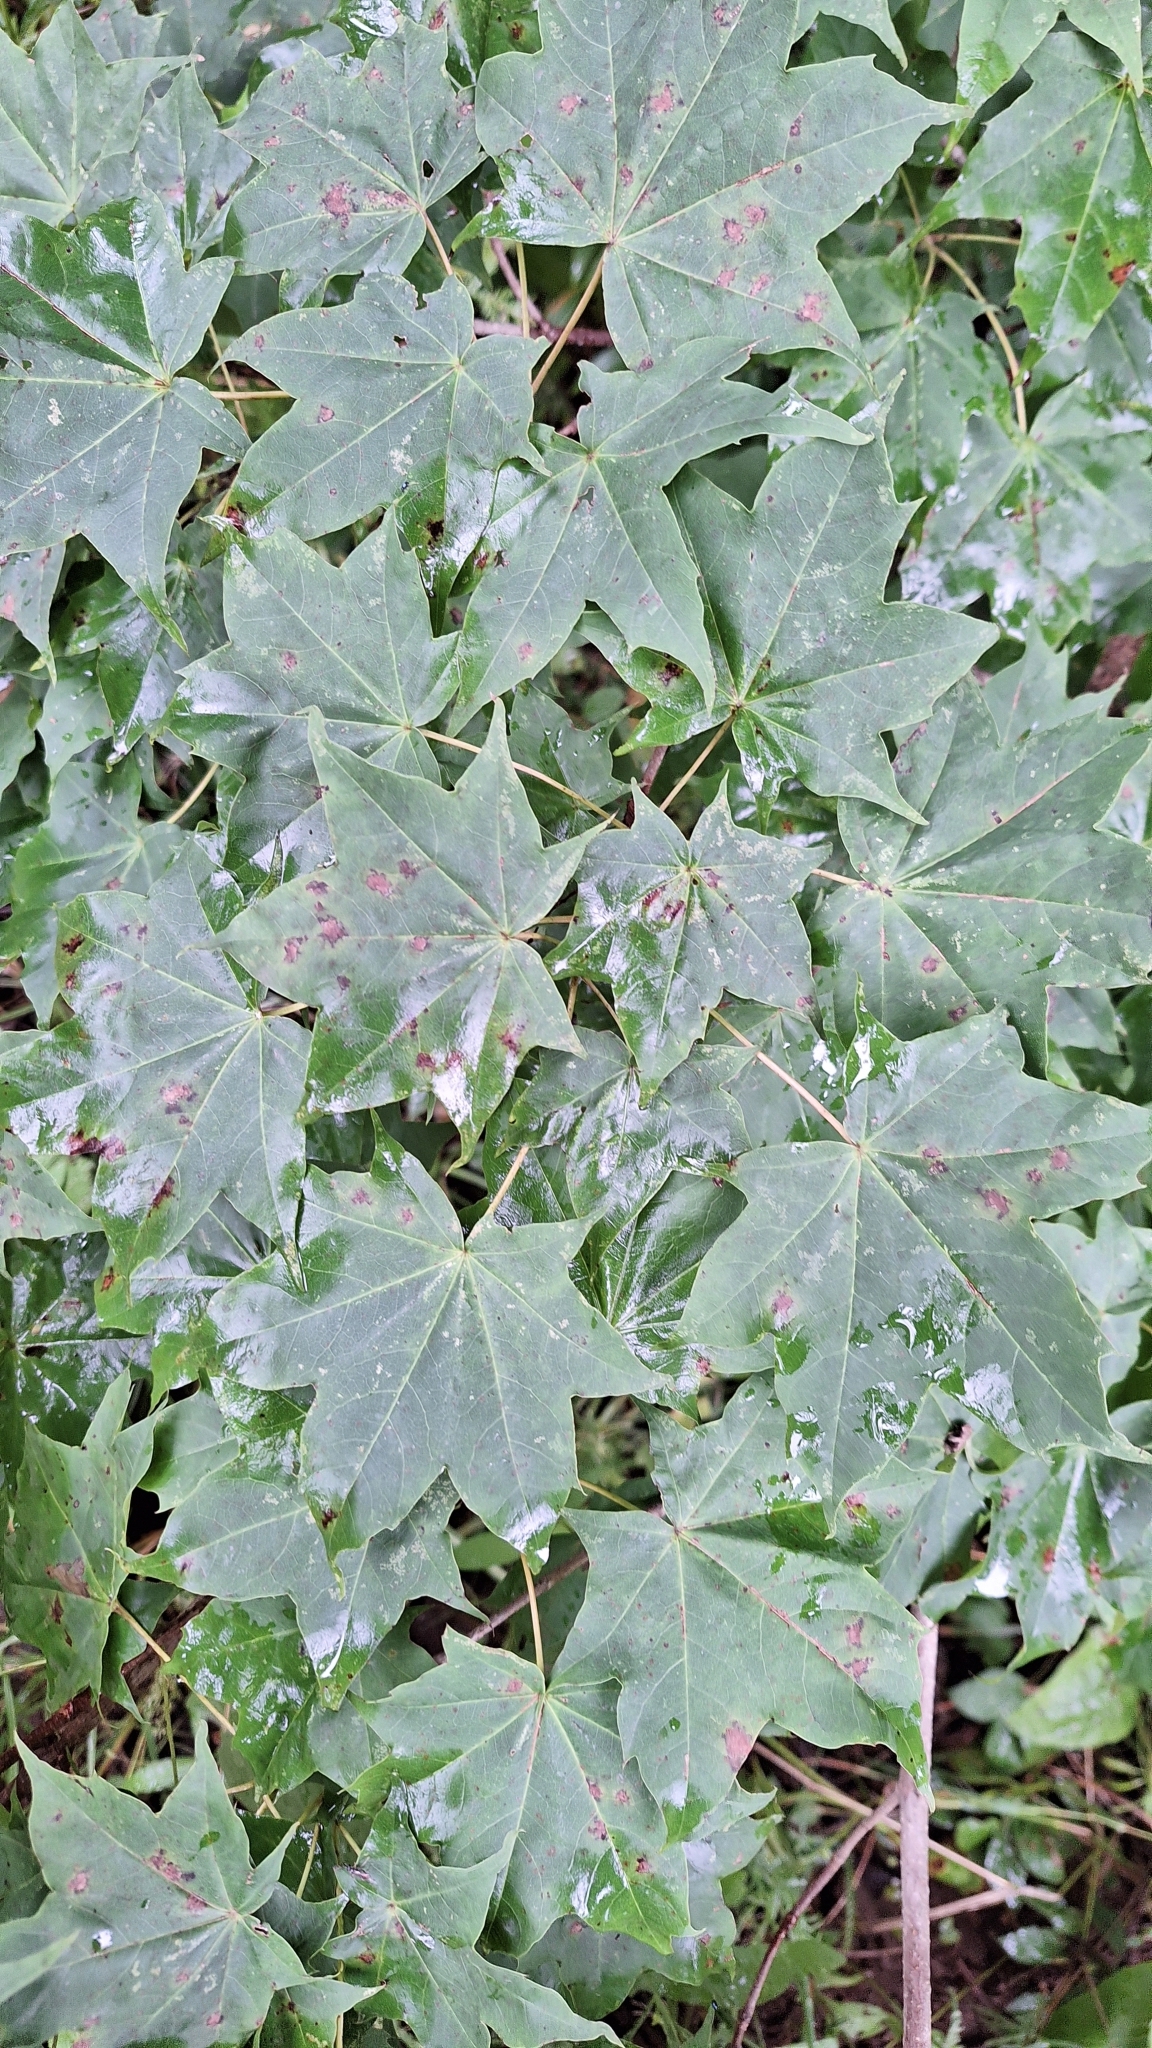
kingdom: Plantae
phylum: Tracheophyta
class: Magnoliopsida
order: Sapindales
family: Sapindaceae
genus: Acer
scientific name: Acer pictum
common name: The painted maple
